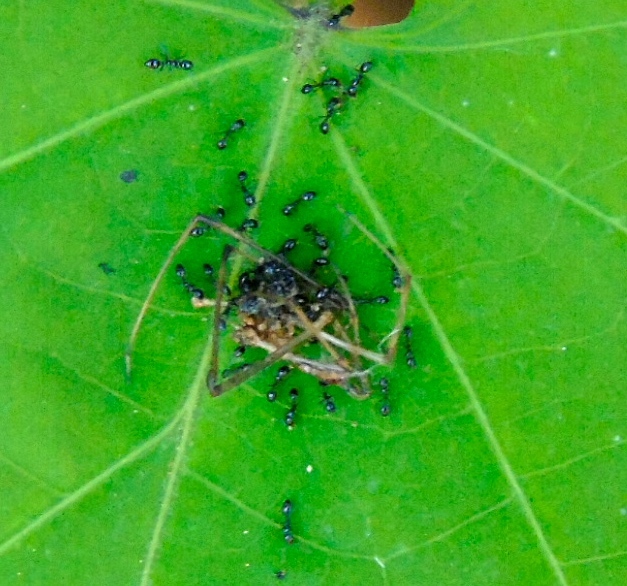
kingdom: Animalia
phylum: Arthropoda
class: Insecta
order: Hymenoptera
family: Formicidae
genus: Monomorium
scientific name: Monomorium
